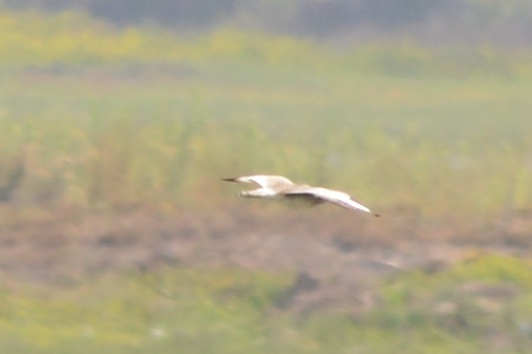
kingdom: Animalia
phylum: Chordata
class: Aves
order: Charadriiformes
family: Scolopacidae
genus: Tringa
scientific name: Tringa semipalmata
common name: Willet
